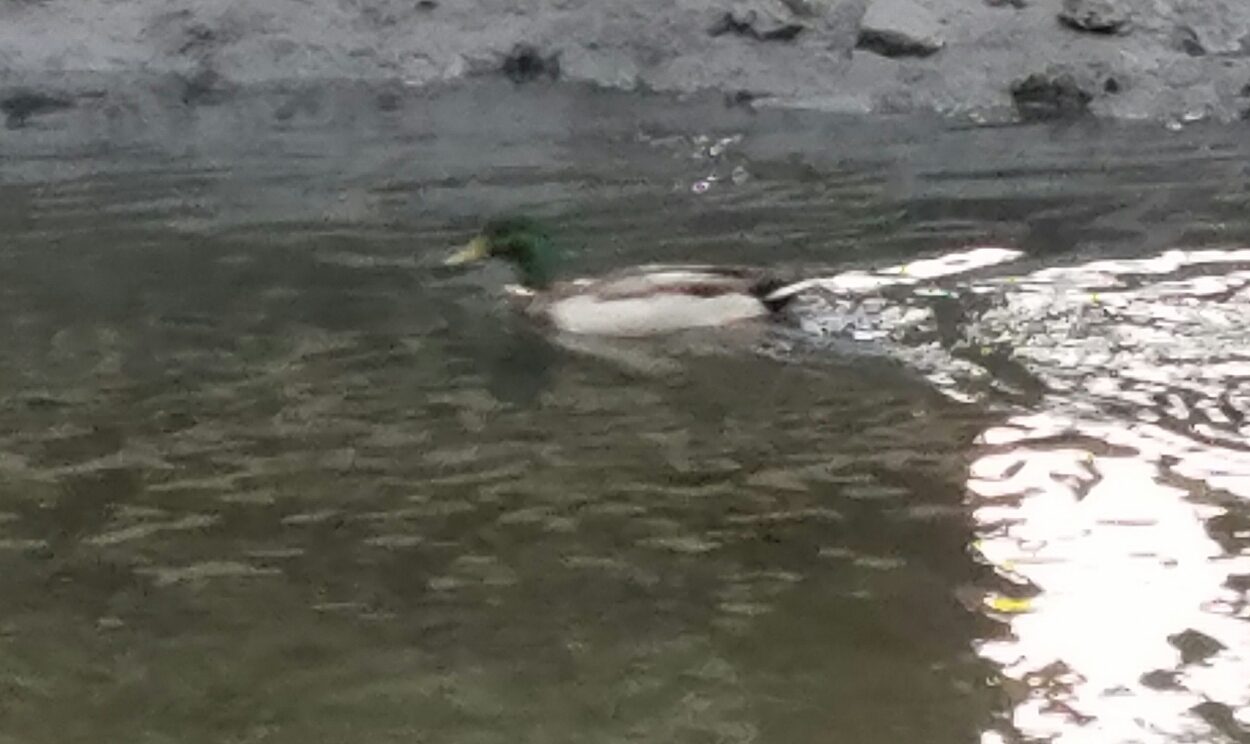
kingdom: Animalia
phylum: Chordata
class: Aves
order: Anseriformes
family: Anatidae
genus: Anas
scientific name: Anas platyrhynchos
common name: Mallard
